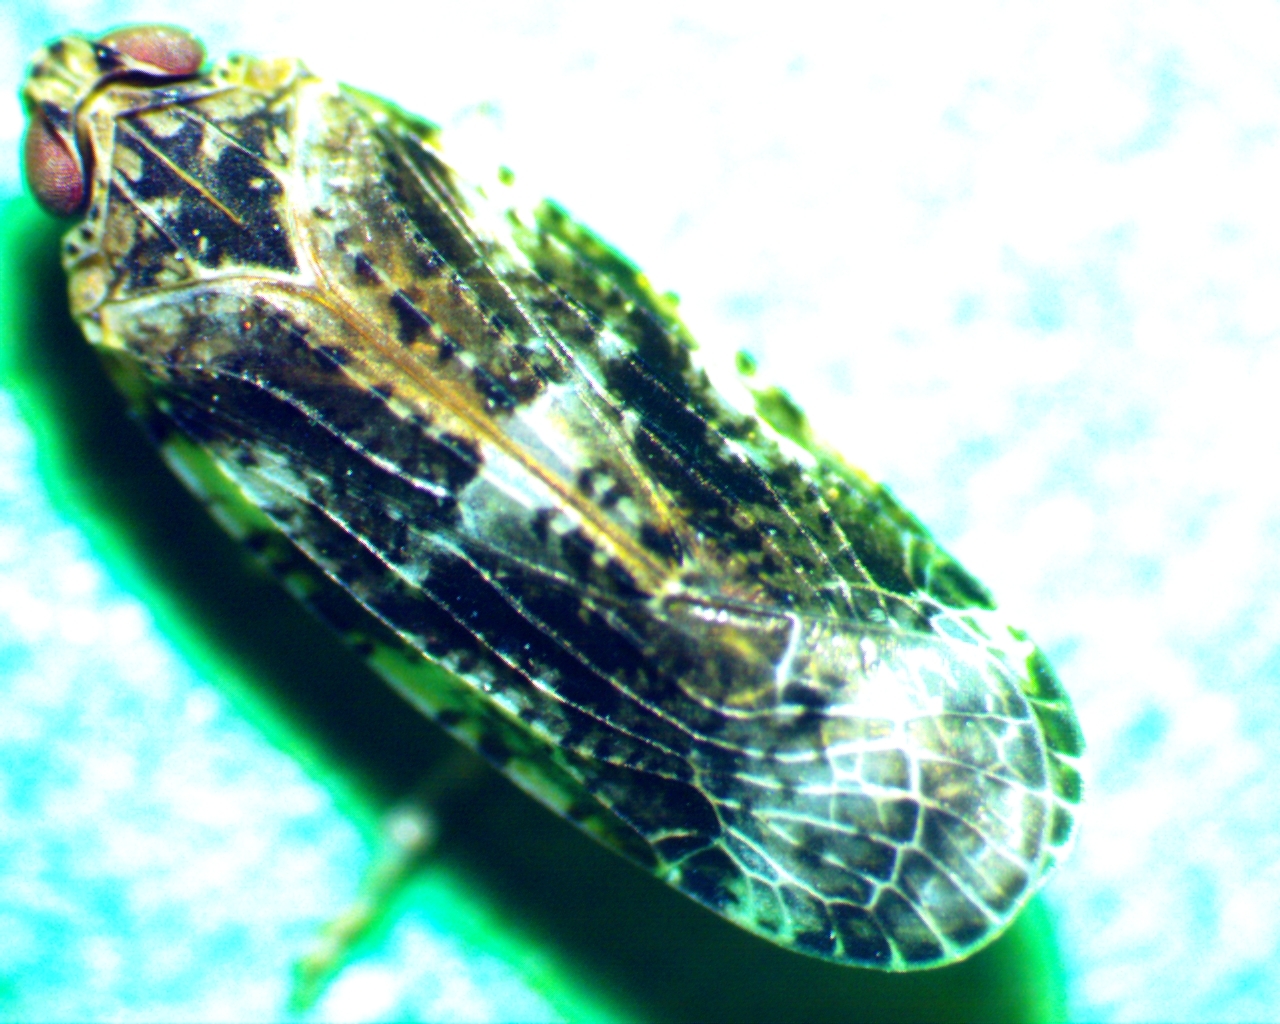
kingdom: Animalia
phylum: Arthropoda
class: Insecta
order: Hemiptera
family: Achilidae
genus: Catonia
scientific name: Catonia cinctifrons
